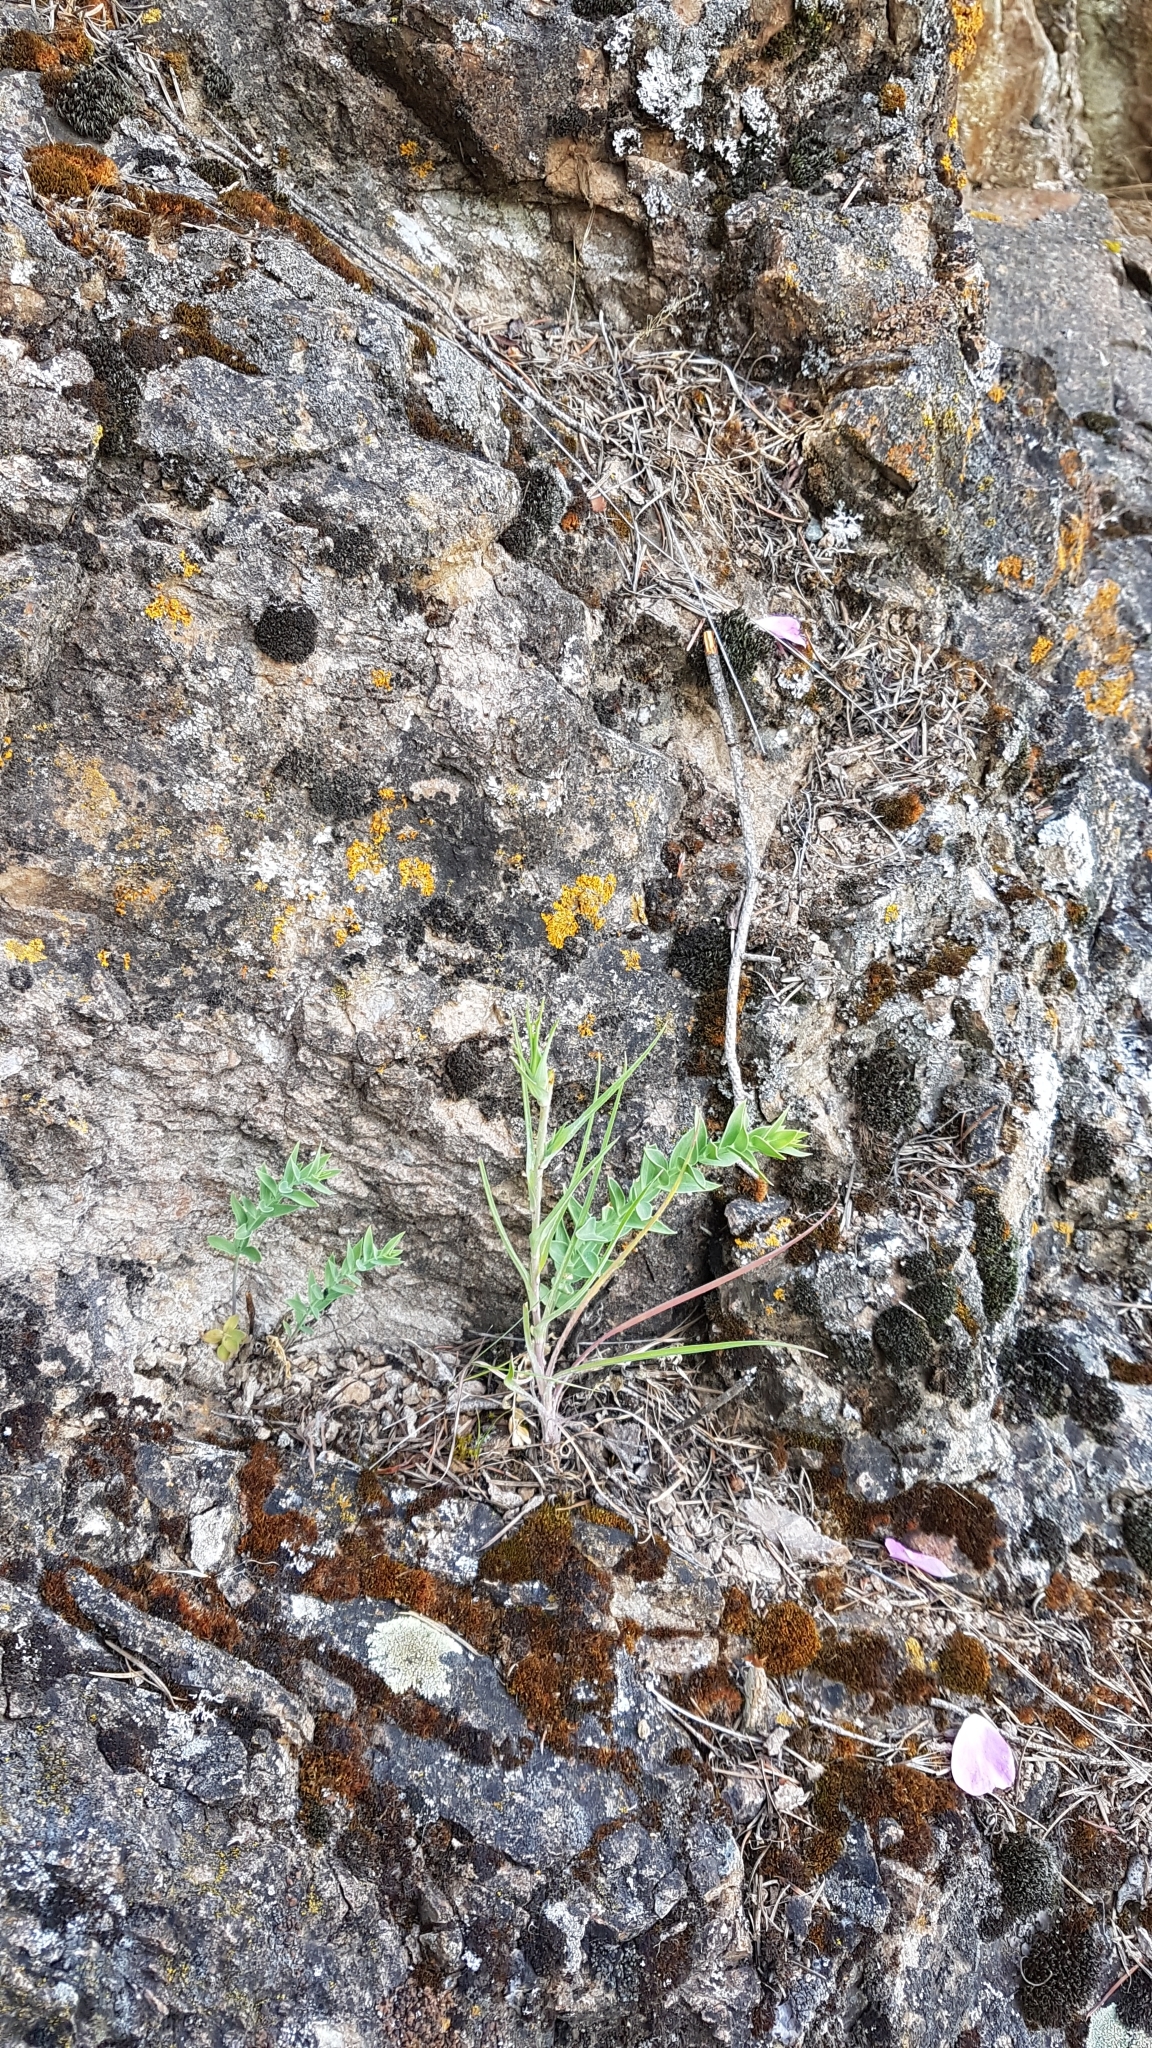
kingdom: Plantae
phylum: Tracheophyta
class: Magnoliopsida
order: Lamiales
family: Plantaginaceae
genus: Linaria
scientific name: Linaria dalmatica
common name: Dalmatian toadflax
